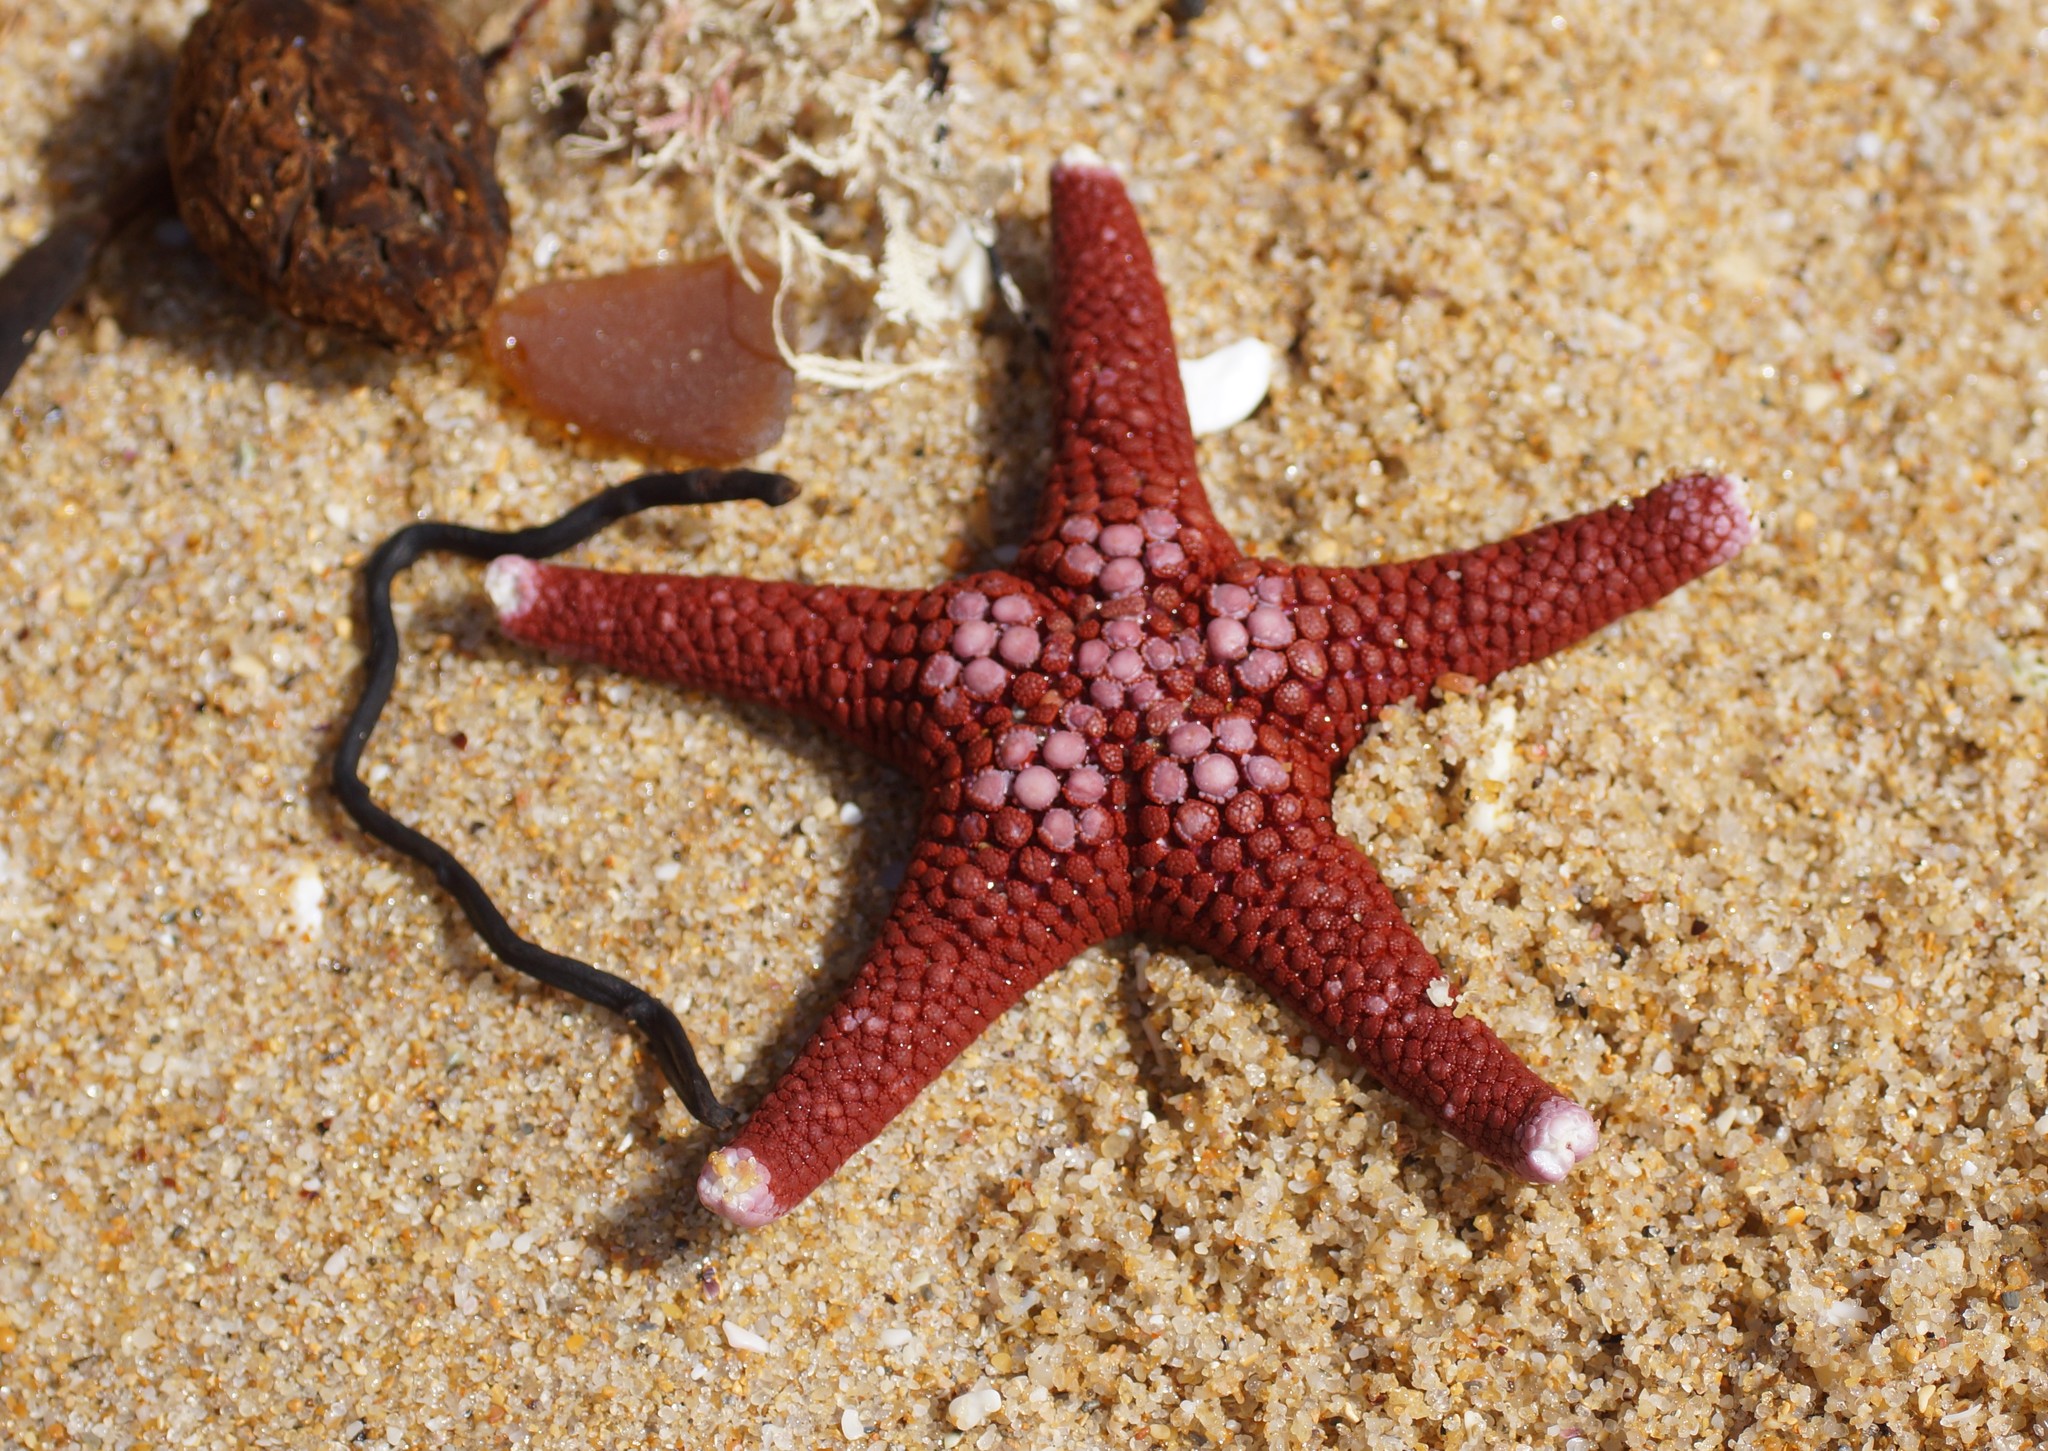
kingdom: Animalia
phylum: Echinodermata
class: Asteroidea
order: Valvatida
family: Goniasteridae
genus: Nectria
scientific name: Nectria ocellata
